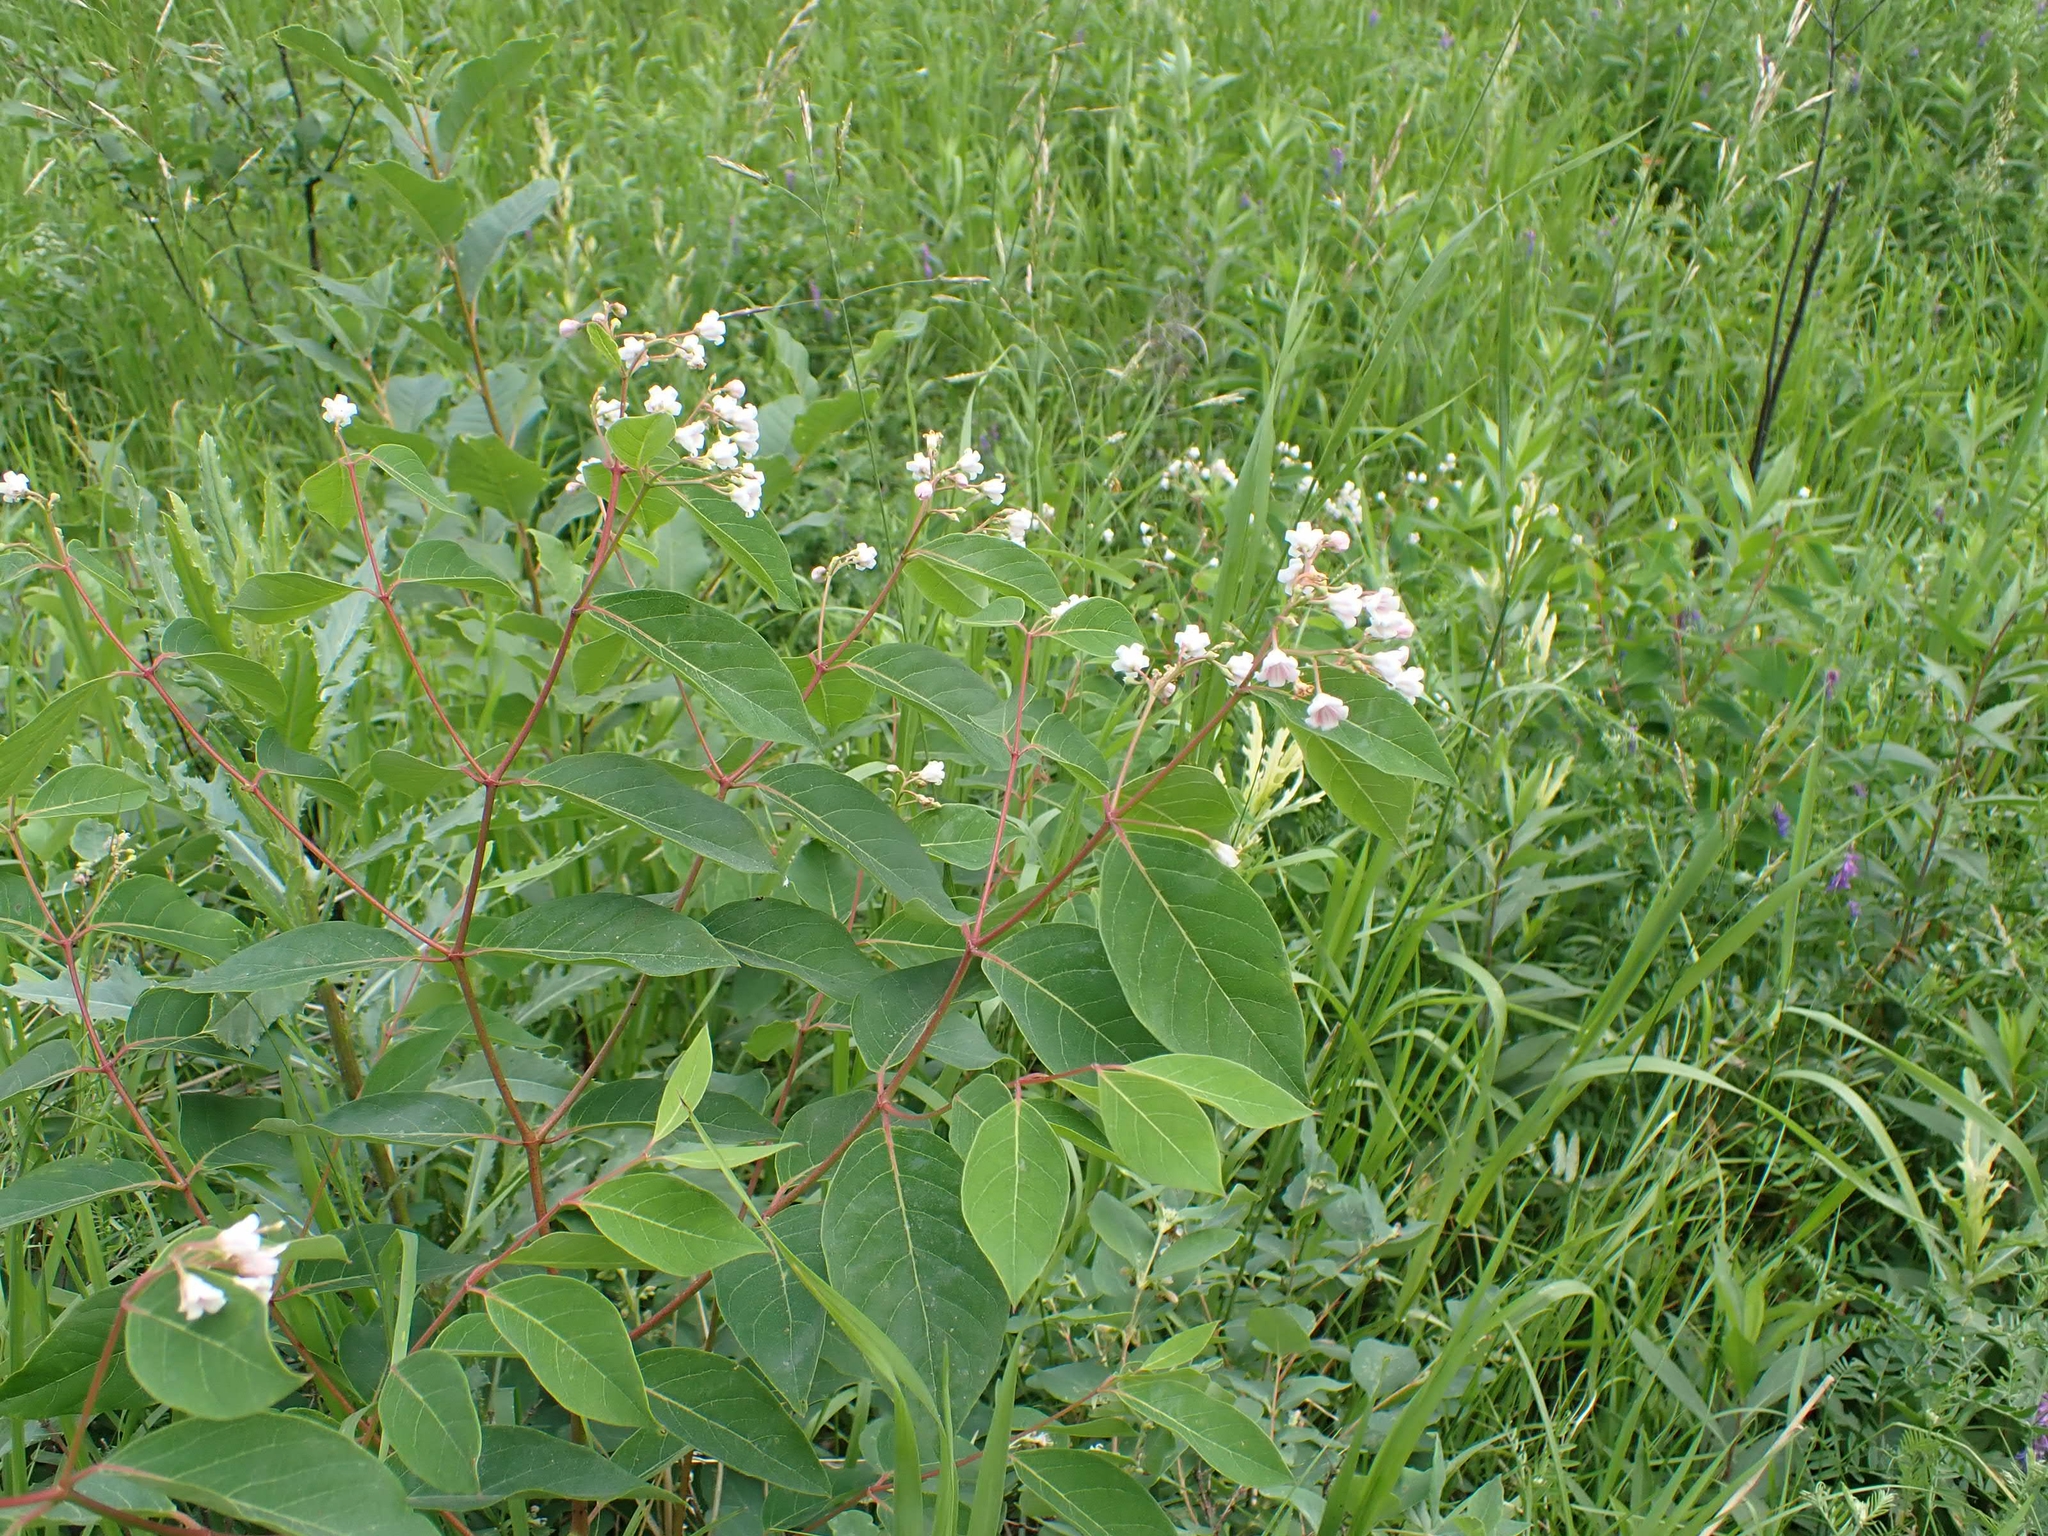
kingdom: Plantae
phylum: Tracheophyta
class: Magnoliopsida
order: Gentianales
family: Apocynaceae
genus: Apocynum
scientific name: Apocynum androsaemifolium
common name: Spreading dogbane
